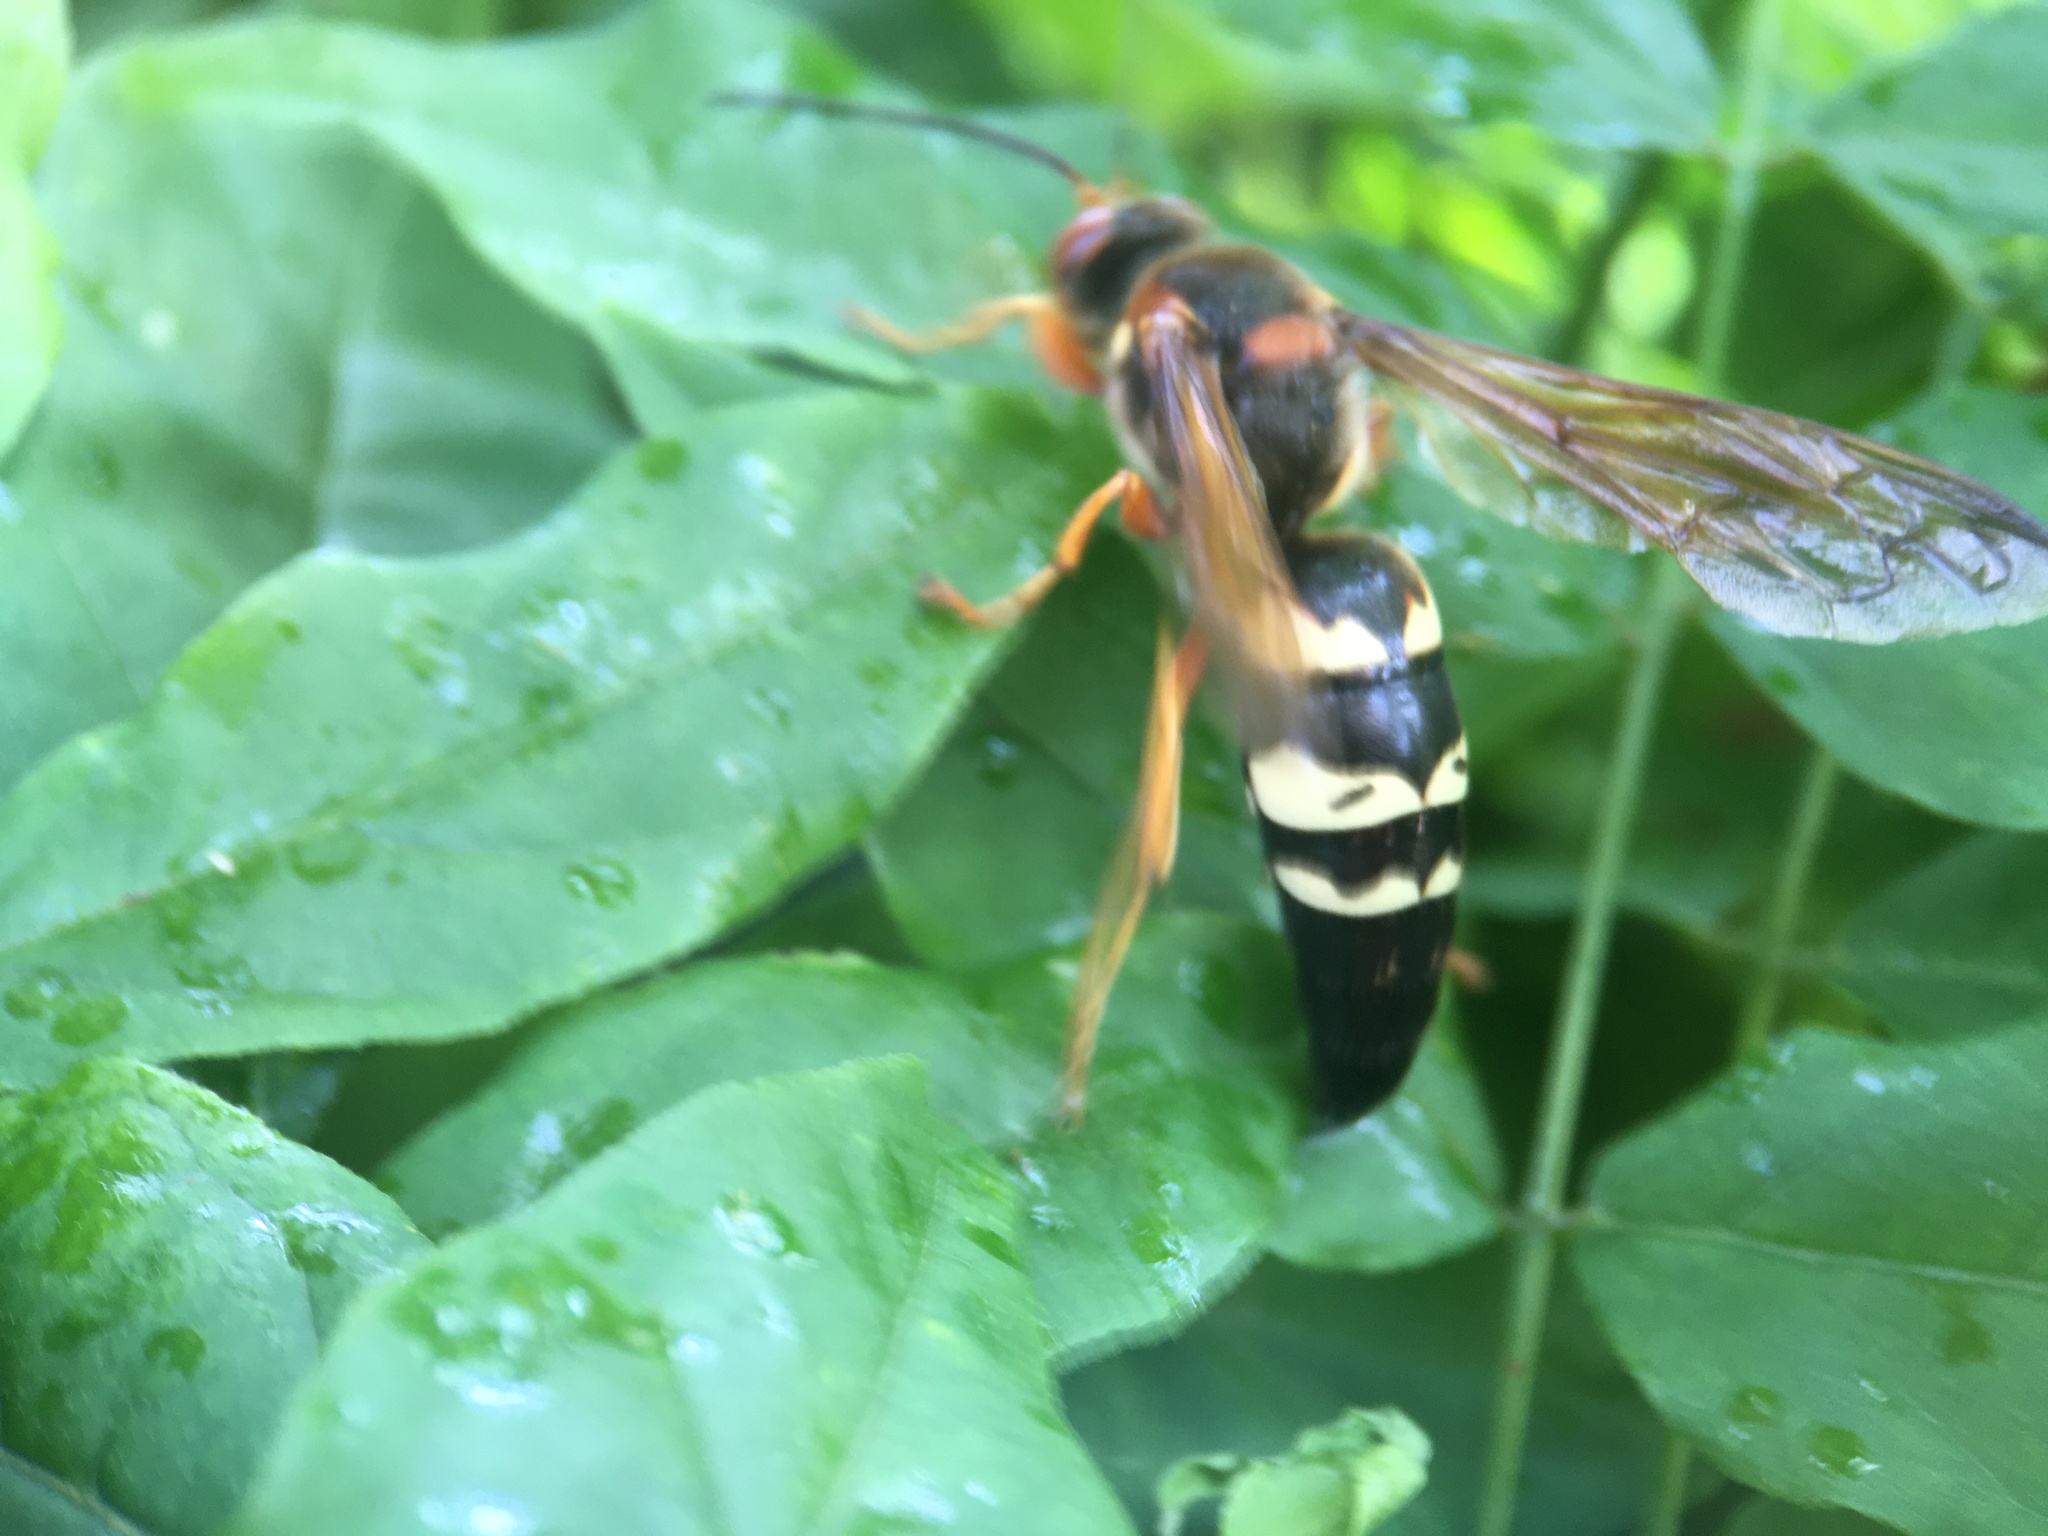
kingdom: Animalia
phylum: Arthropoda
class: Insecta
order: Hymenoptera
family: Crabronidae
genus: Sphecius
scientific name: Sphecius speciosus
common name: Cicada killer
